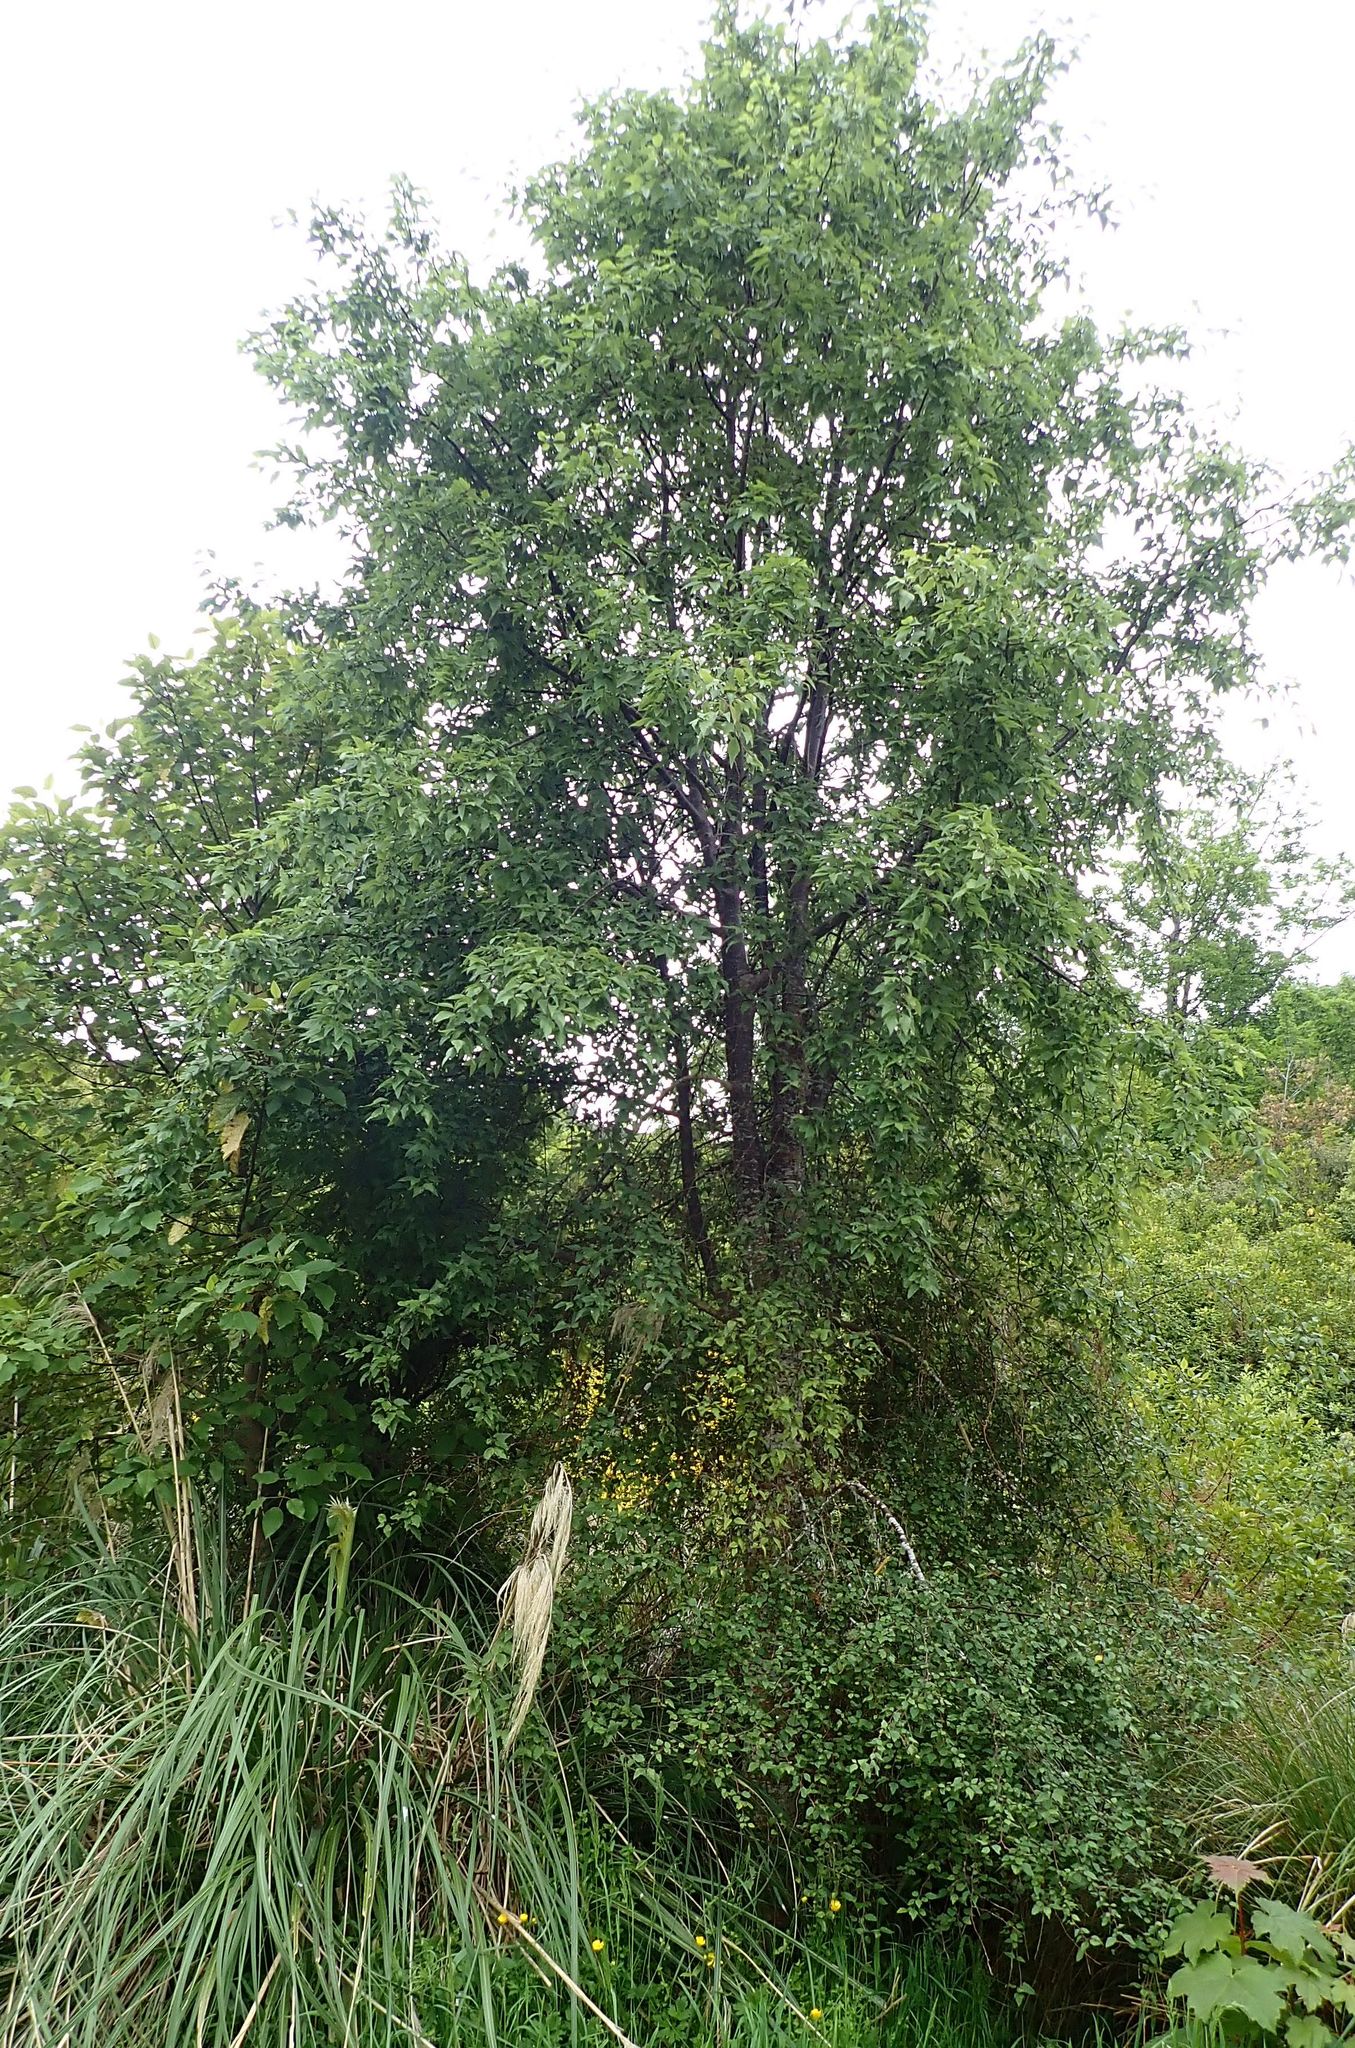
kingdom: Plantae
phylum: Tracheophyta
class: Magnoliopsida
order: Malvales
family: Malvaceae
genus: Plagianthus
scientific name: Plagianthus regius
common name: Manatu
